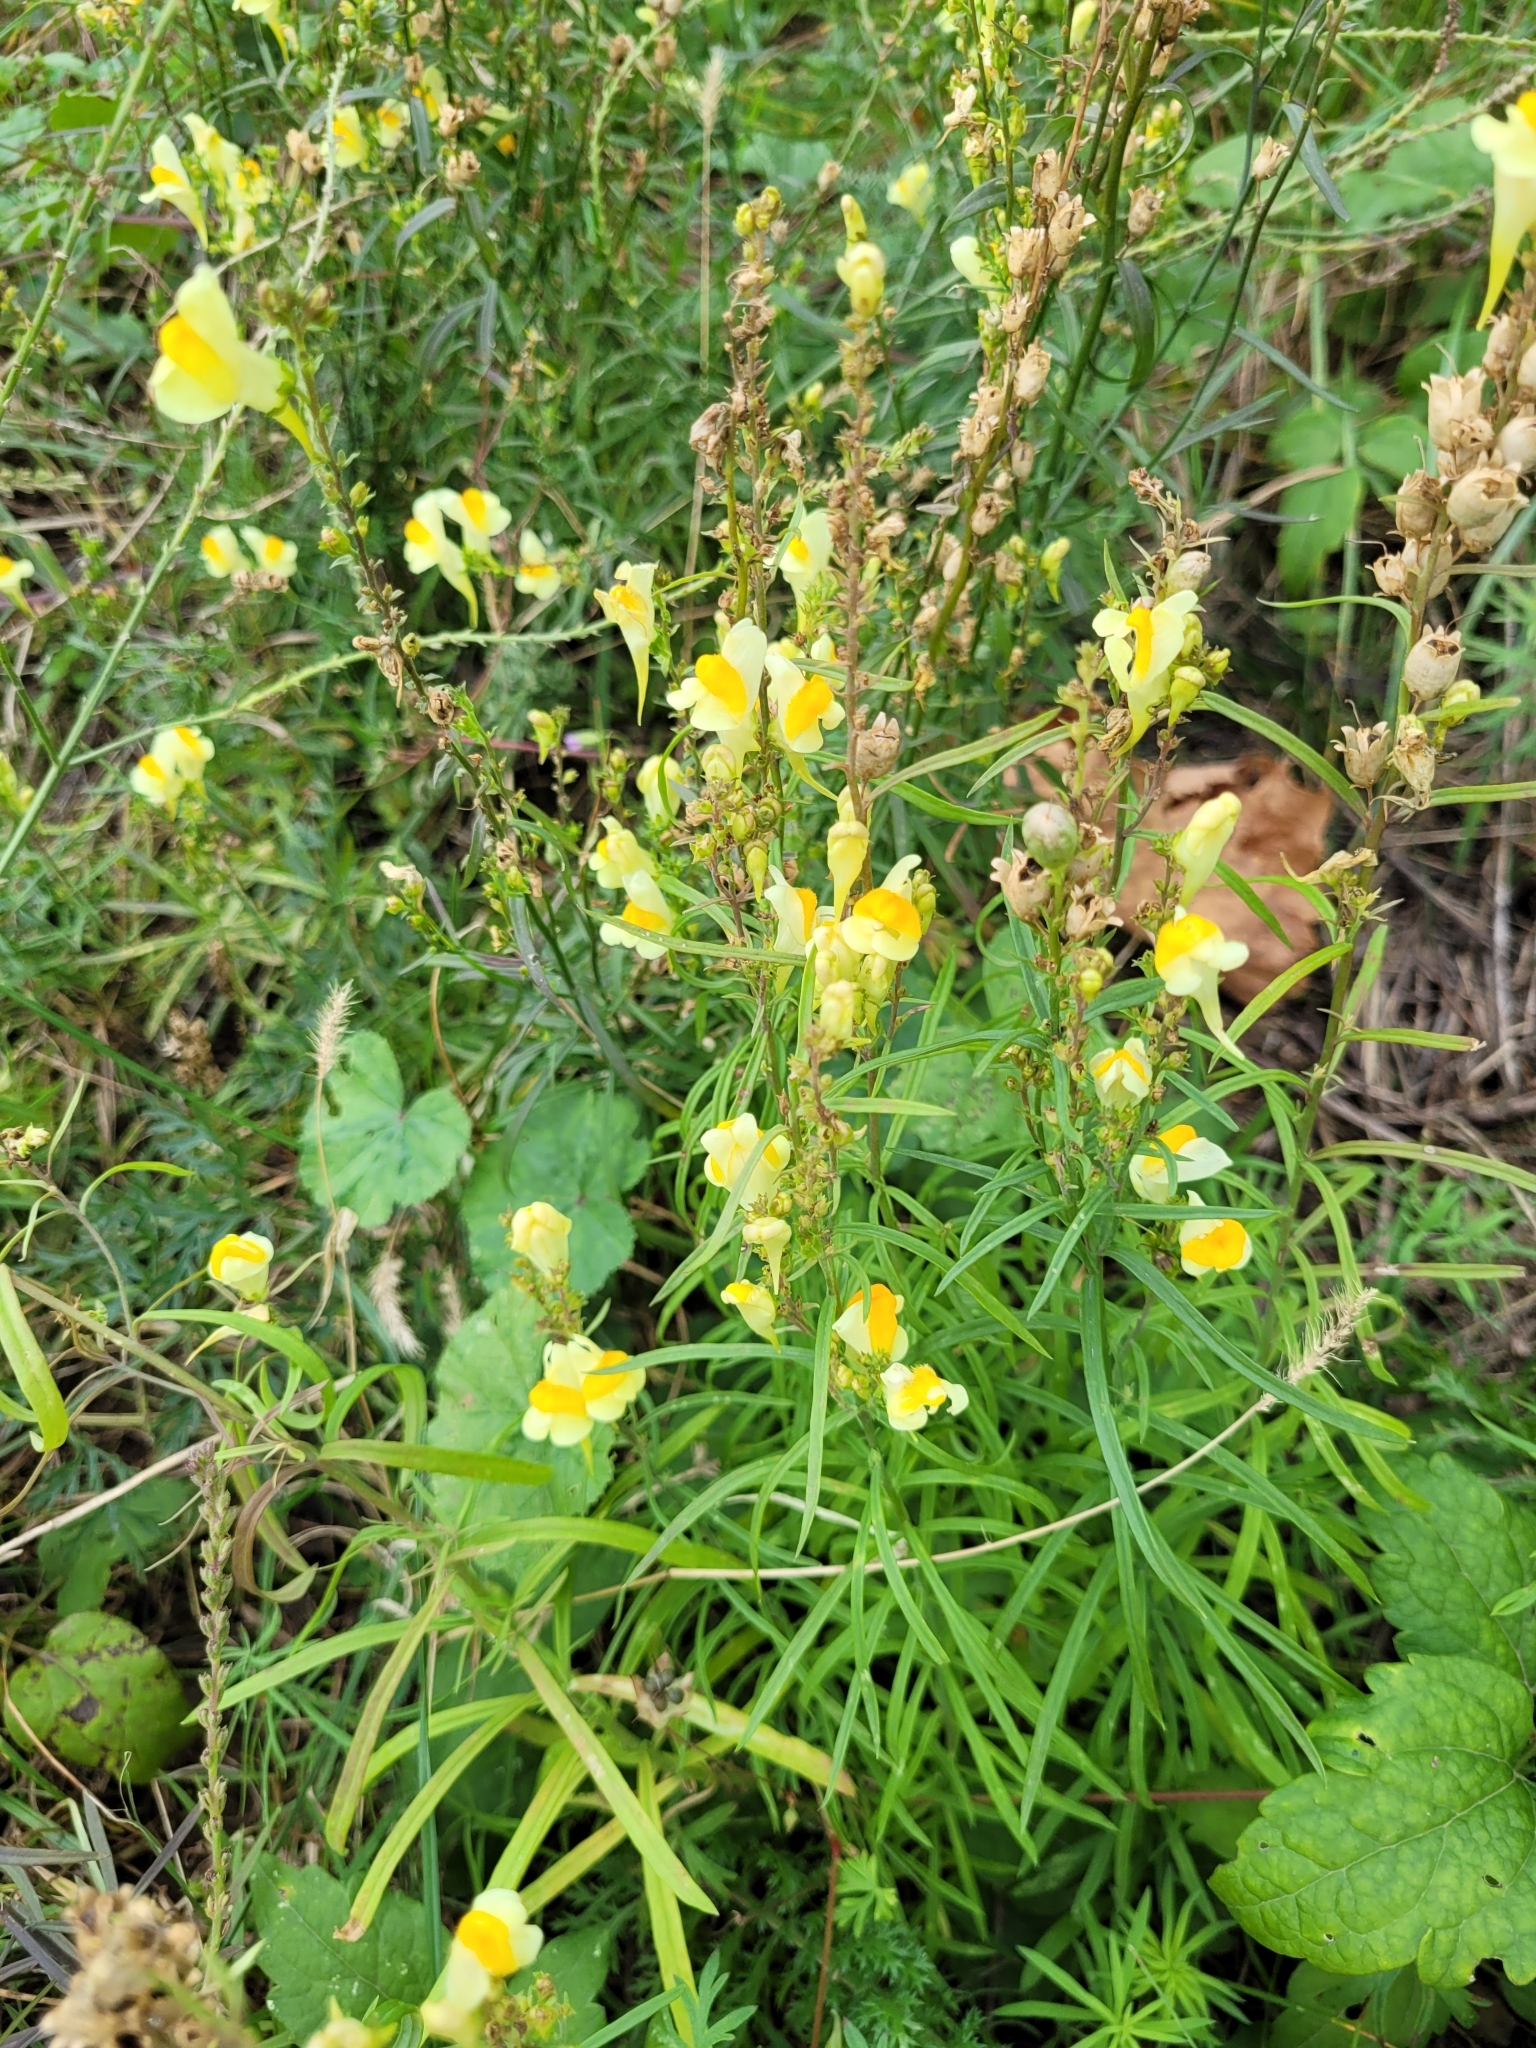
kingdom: Plantae
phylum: Tracheophyta
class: Magnoliopsida
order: Lamiales
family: Plantaginaceae
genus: Linaria
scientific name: Linaria vulgaris
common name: Butter and eggs
